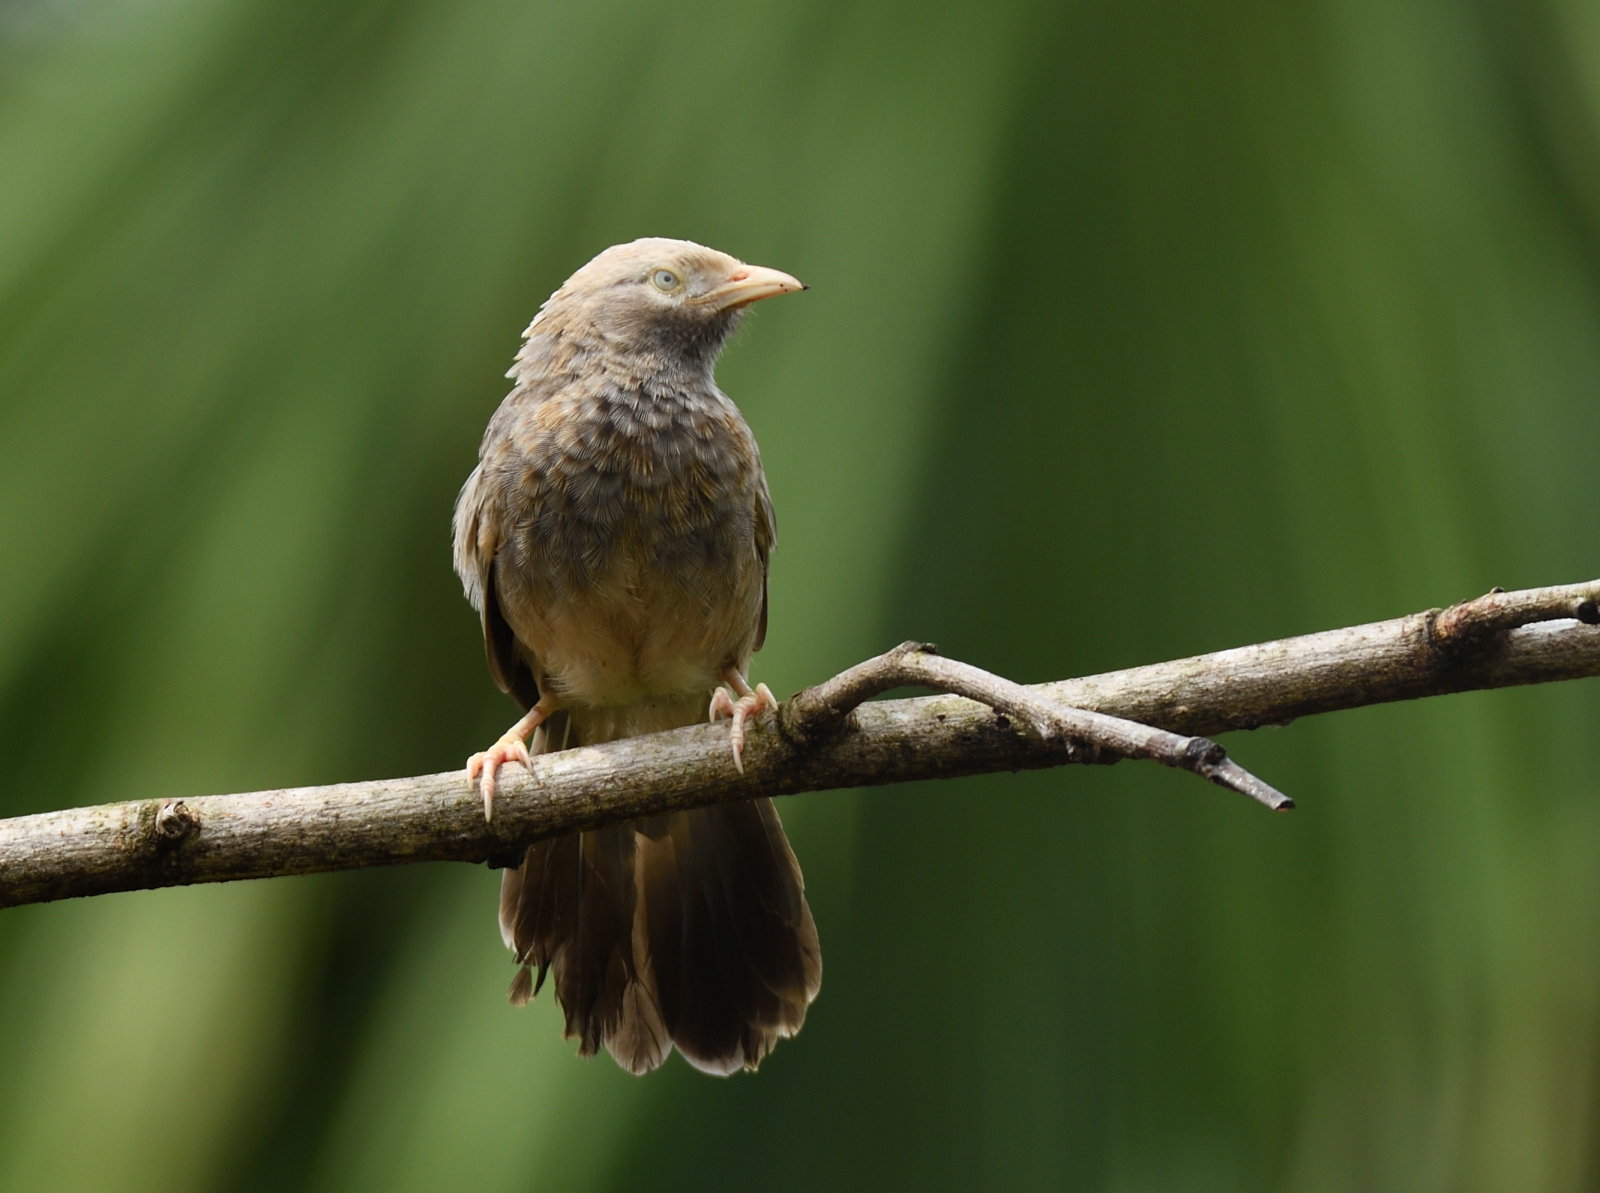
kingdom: Animalia
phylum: Chordata
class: Aves
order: Passeriformes
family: Leiothrichidae
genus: Turdoides
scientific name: Turdoides affinis
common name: Yellow-billed babbler
